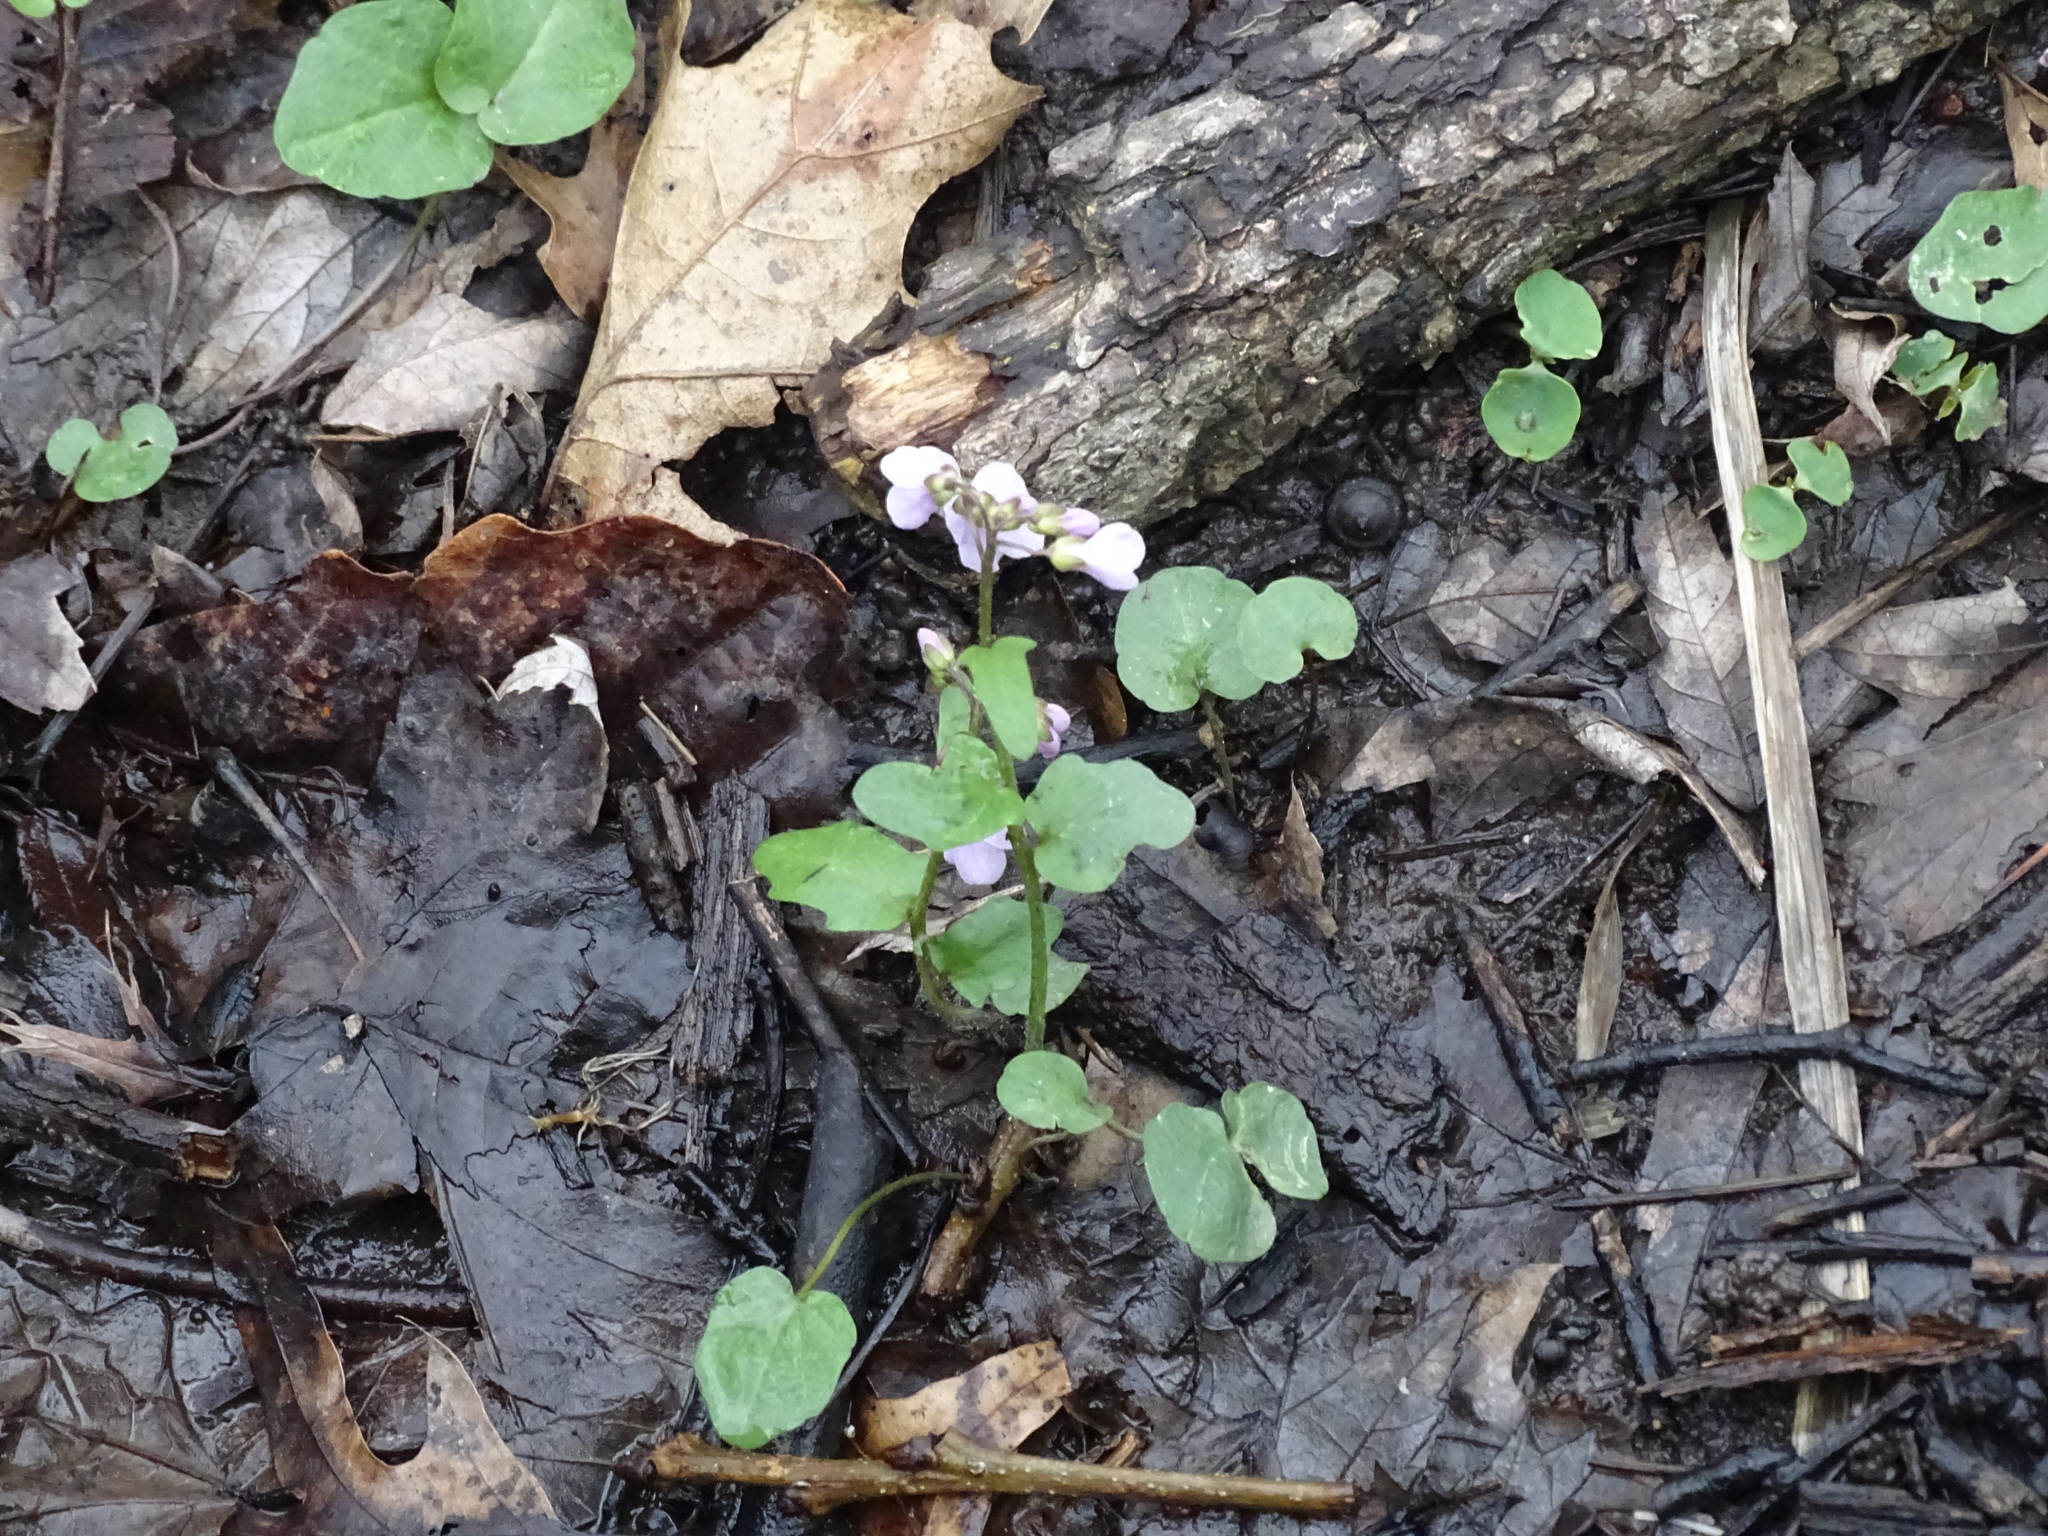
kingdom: Plantae
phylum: Tracheophyta
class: Magnoliopsida
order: Brassicales
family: Brassicaceae
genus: Cardamine
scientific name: Cardamine douglassii
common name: Purple cress
